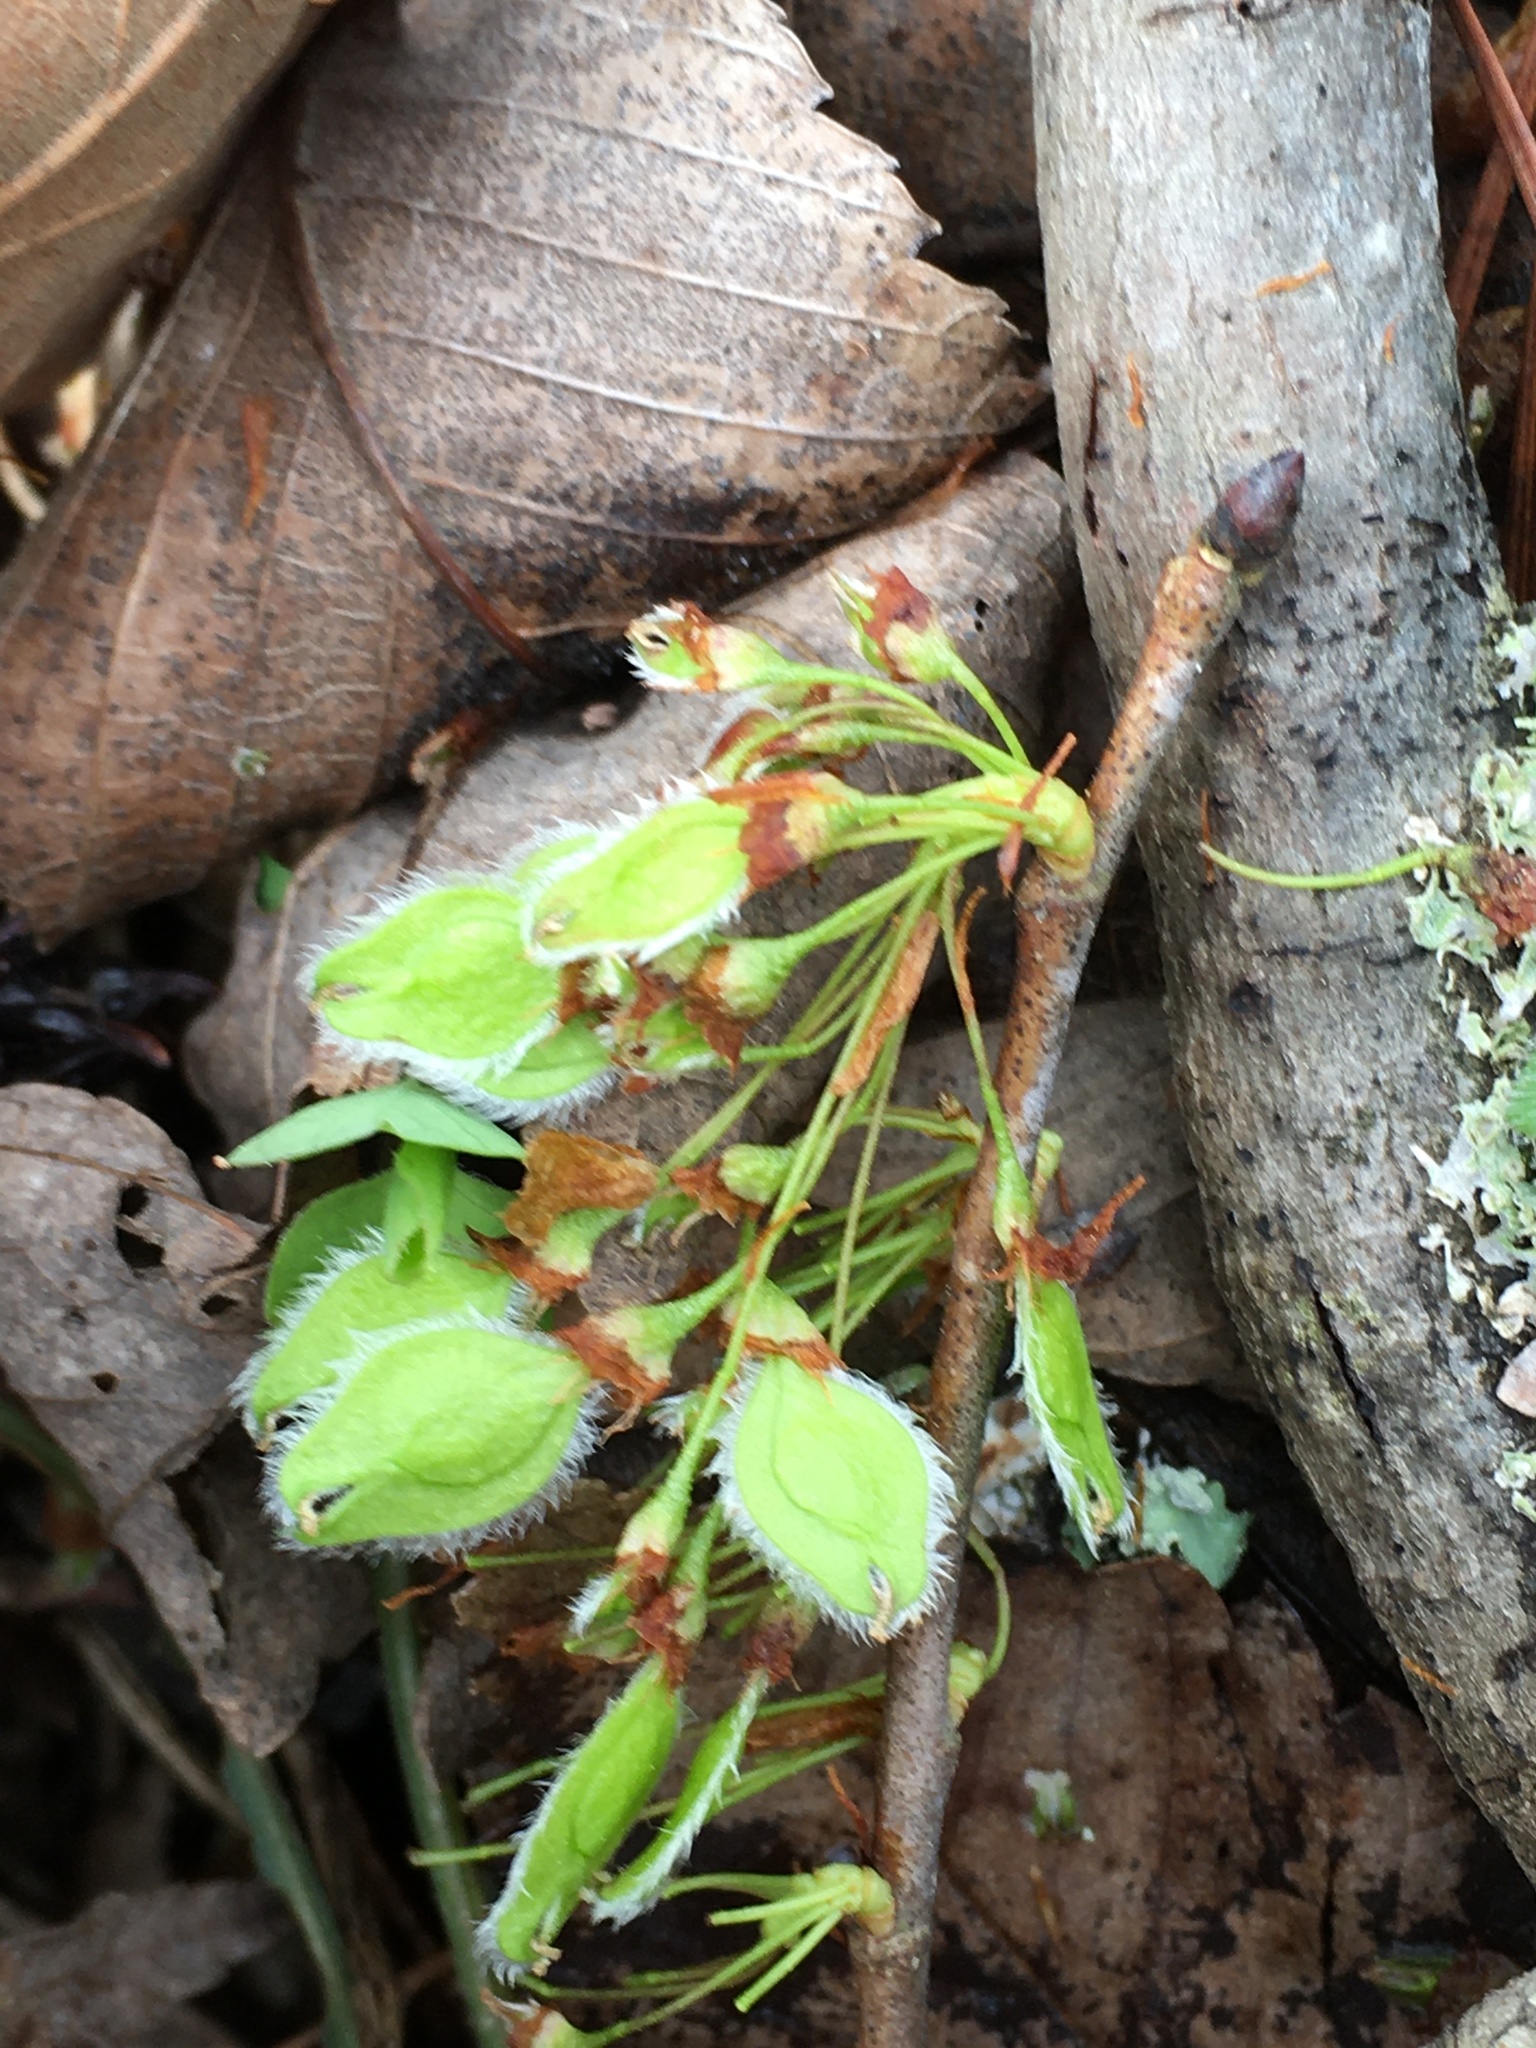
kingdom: Plantae
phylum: Tracheophyta
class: Magnoliopsida
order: Rosales
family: Ulmaceae
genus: Ulmus
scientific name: Ulmus americana
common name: American elm
